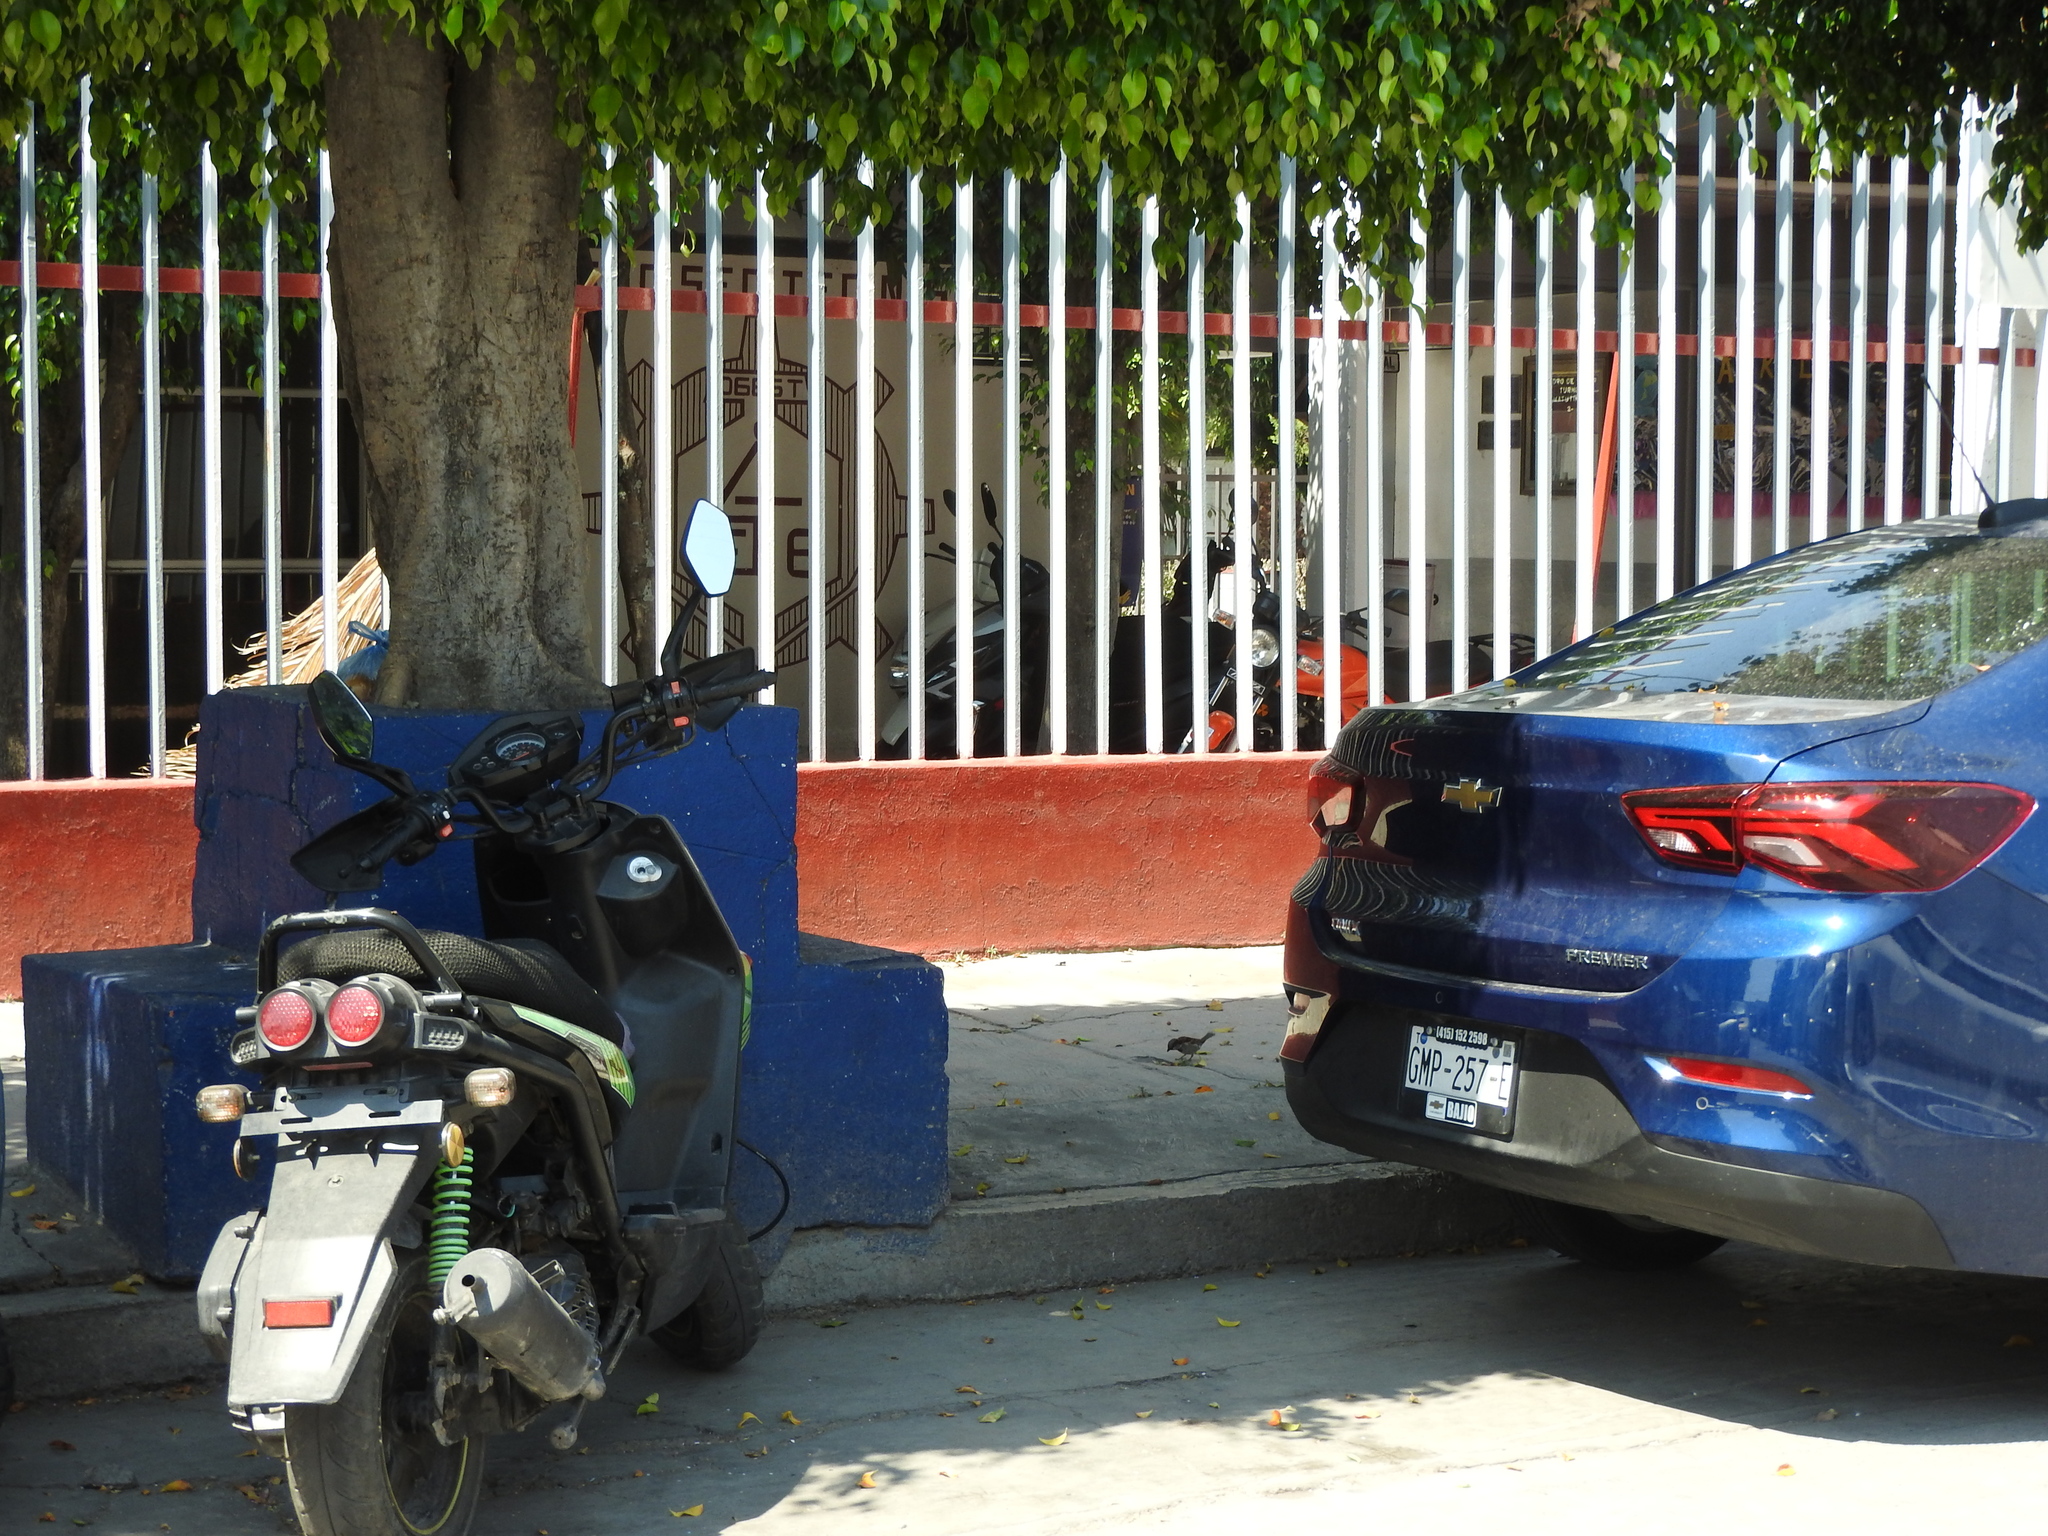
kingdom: Animalia
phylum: Chordata
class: Aves
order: Passeriformes
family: Passeridae
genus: Passer
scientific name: Passer domesticus
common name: House sparrow
